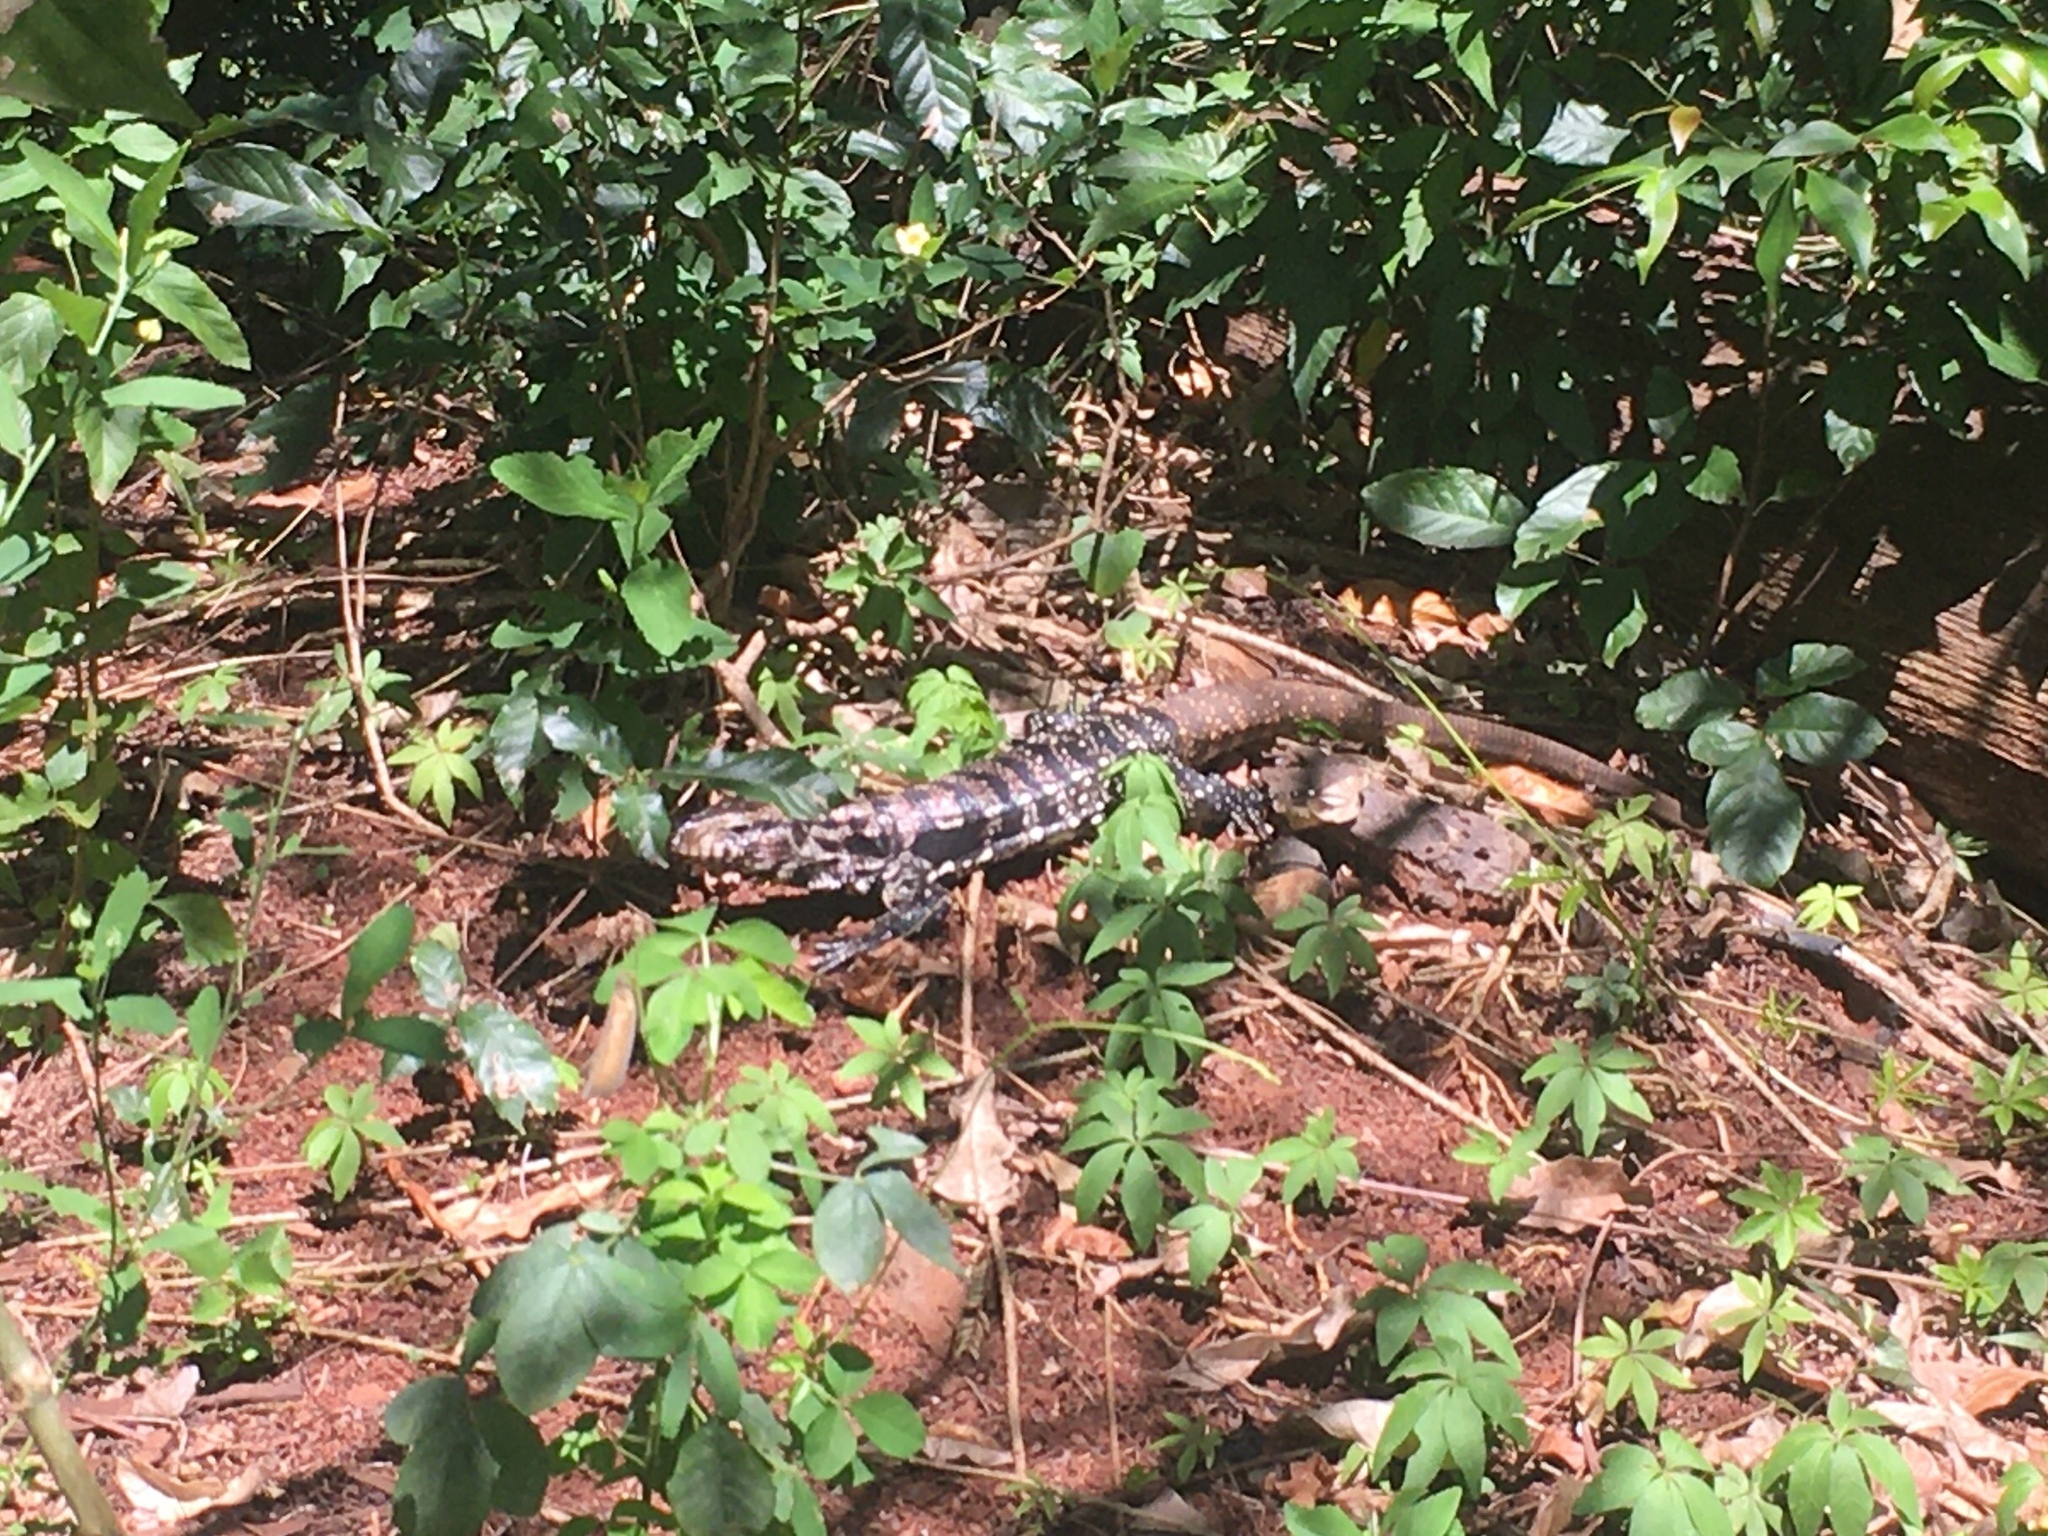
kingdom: Animalia
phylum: Chordata
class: Squamata
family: Teiidae
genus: Salvator
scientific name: Salvator merianae
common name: Argentine black and white tegu
